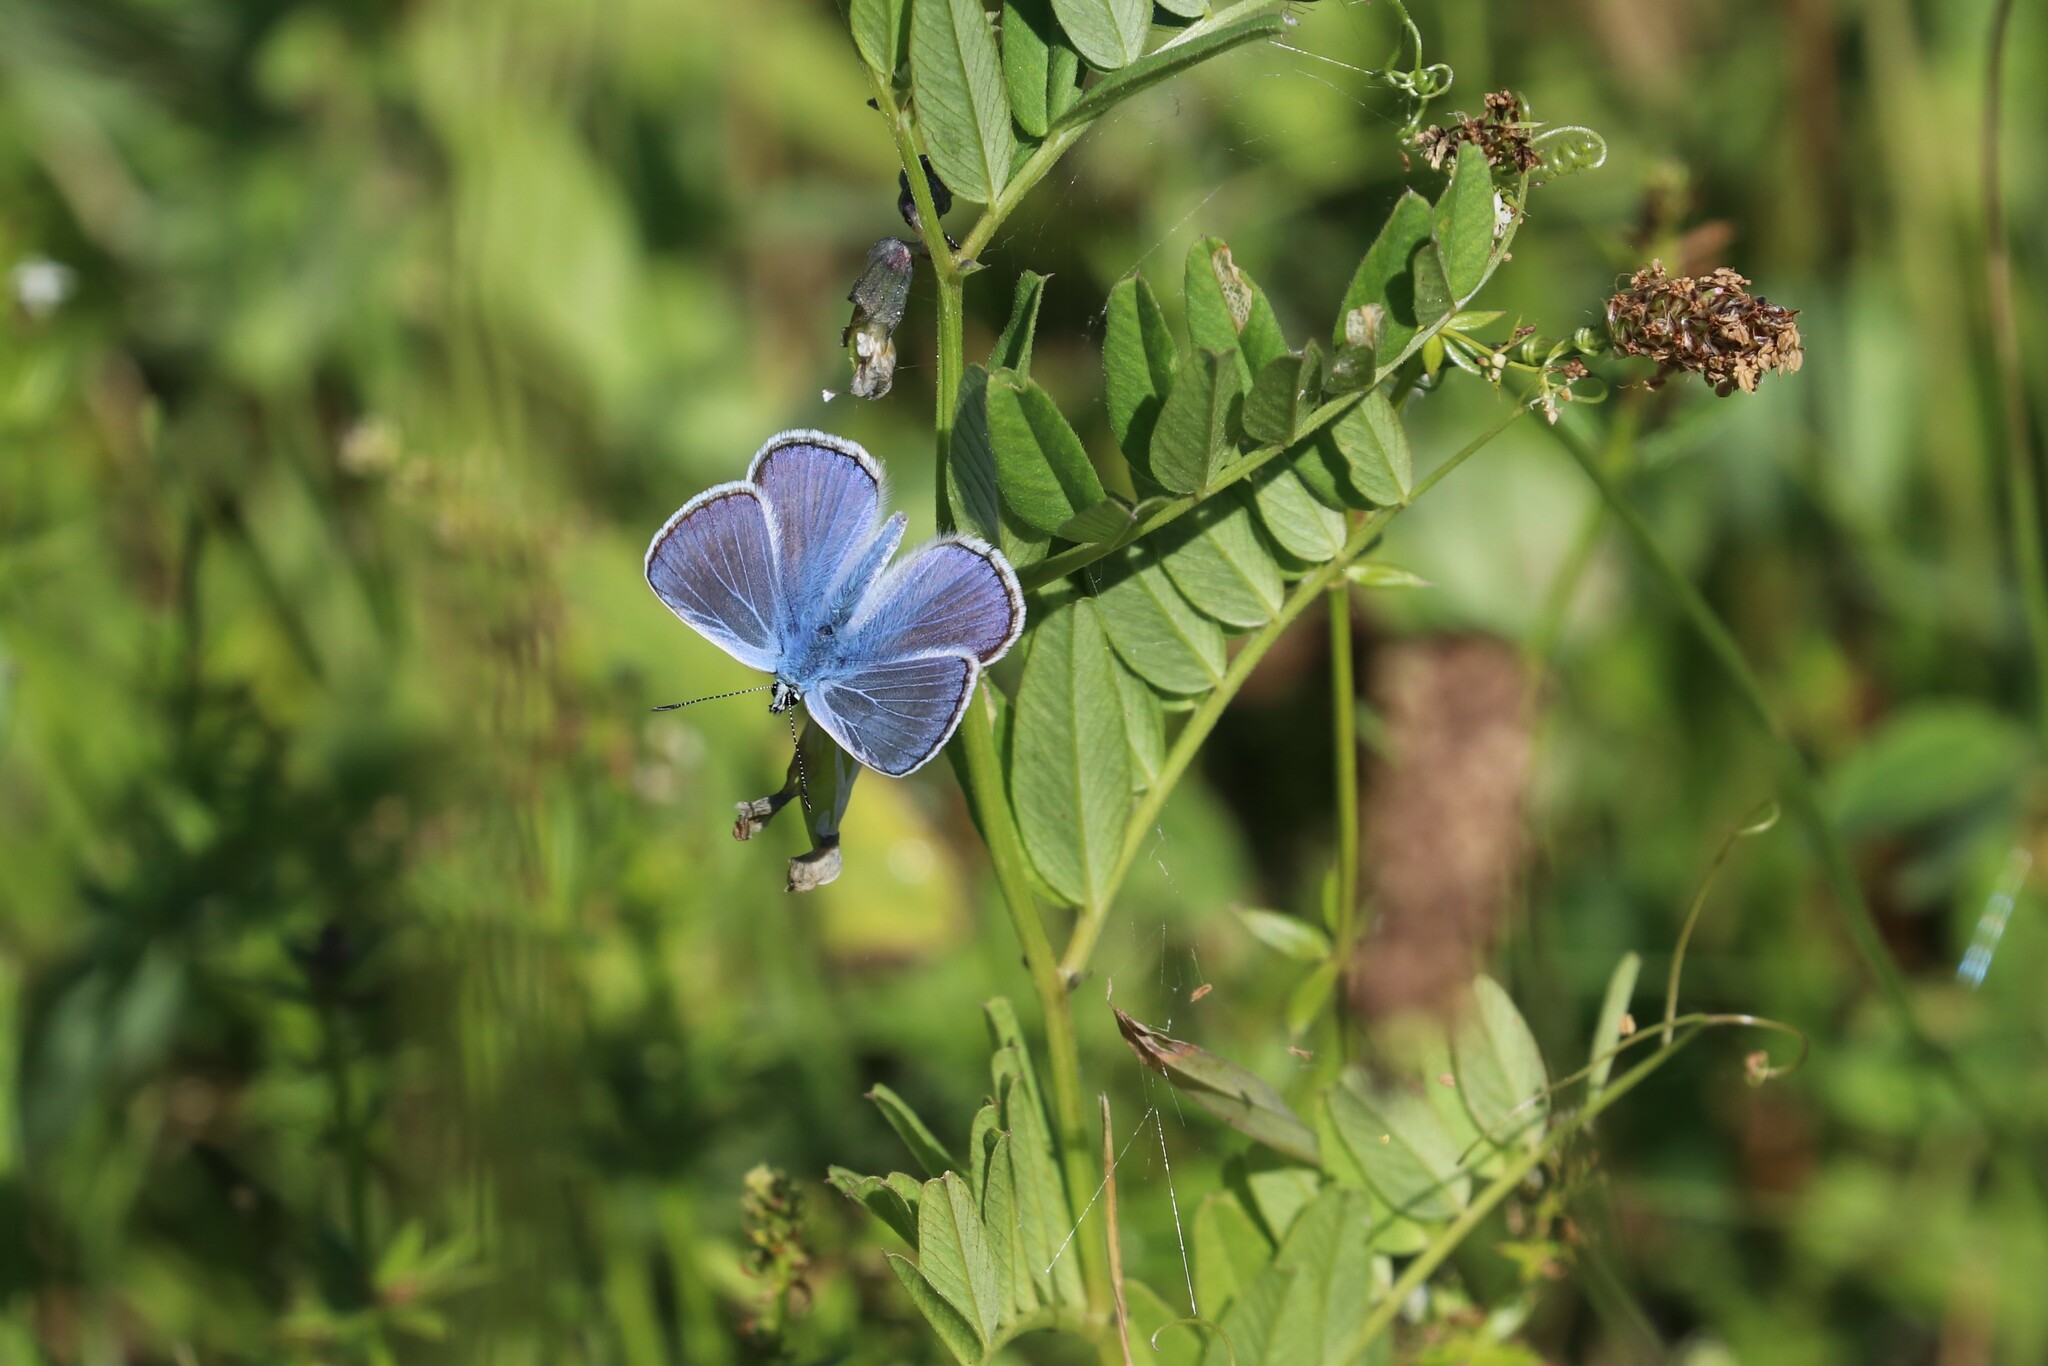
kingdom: Animalia
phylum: Arthropoda
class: Insecta
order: Lepidoptera
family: Lycaenidae
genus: Polyommatus
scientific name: Polyommatus icarus
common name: Common blue
